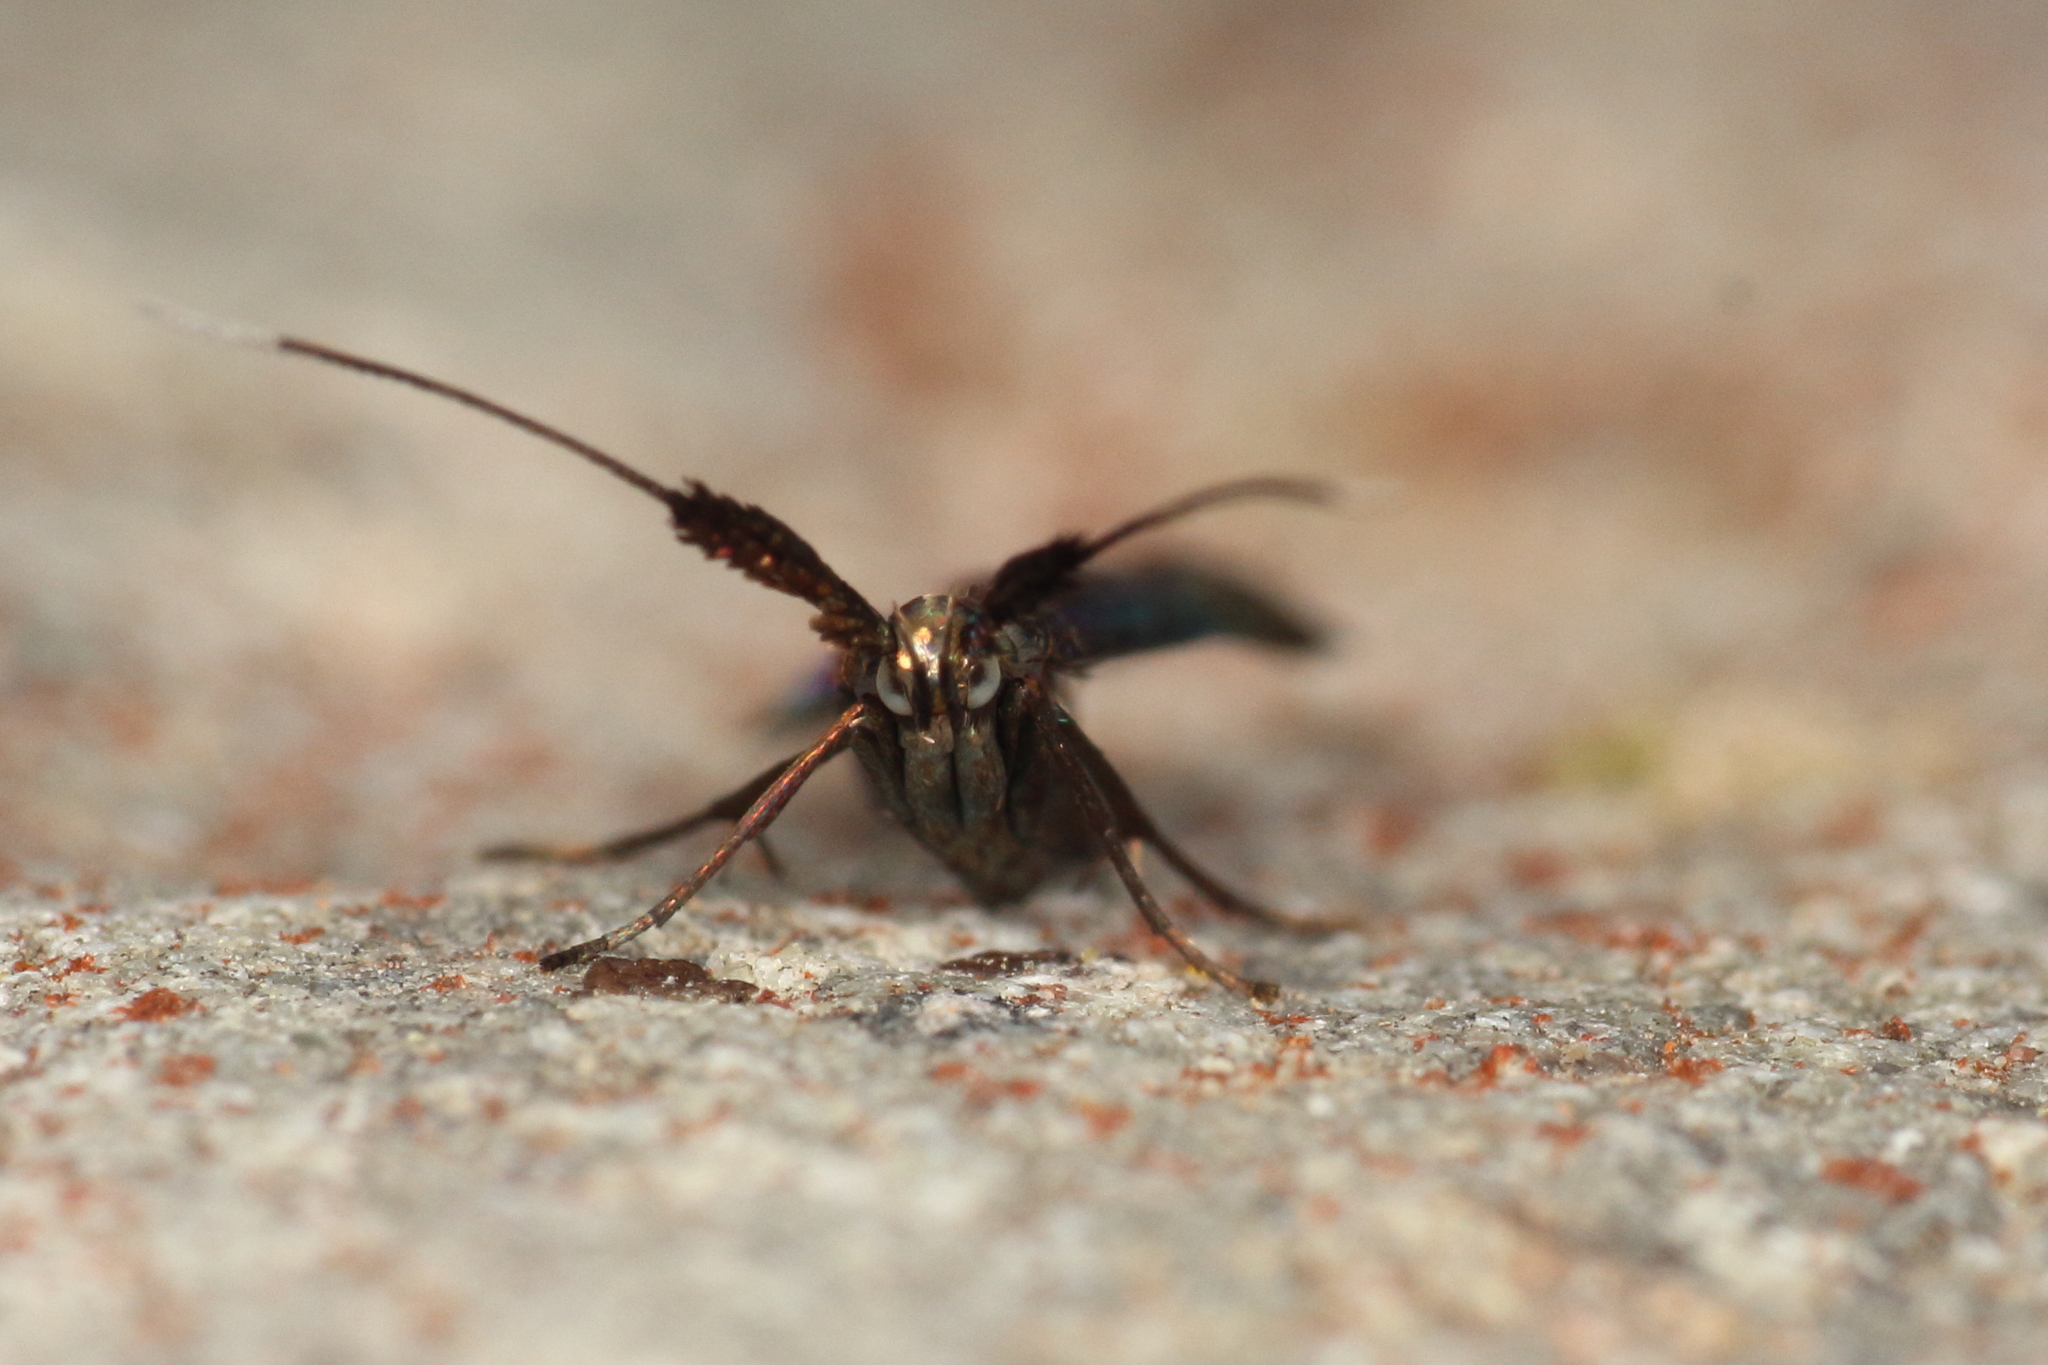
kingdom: Animalia
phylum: Arthropoda
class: Insecta
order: Lepidoptera
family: Coleophoridae
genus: Coleophora
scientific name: Coleophora deauratella
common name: Red-clover case-bearer
